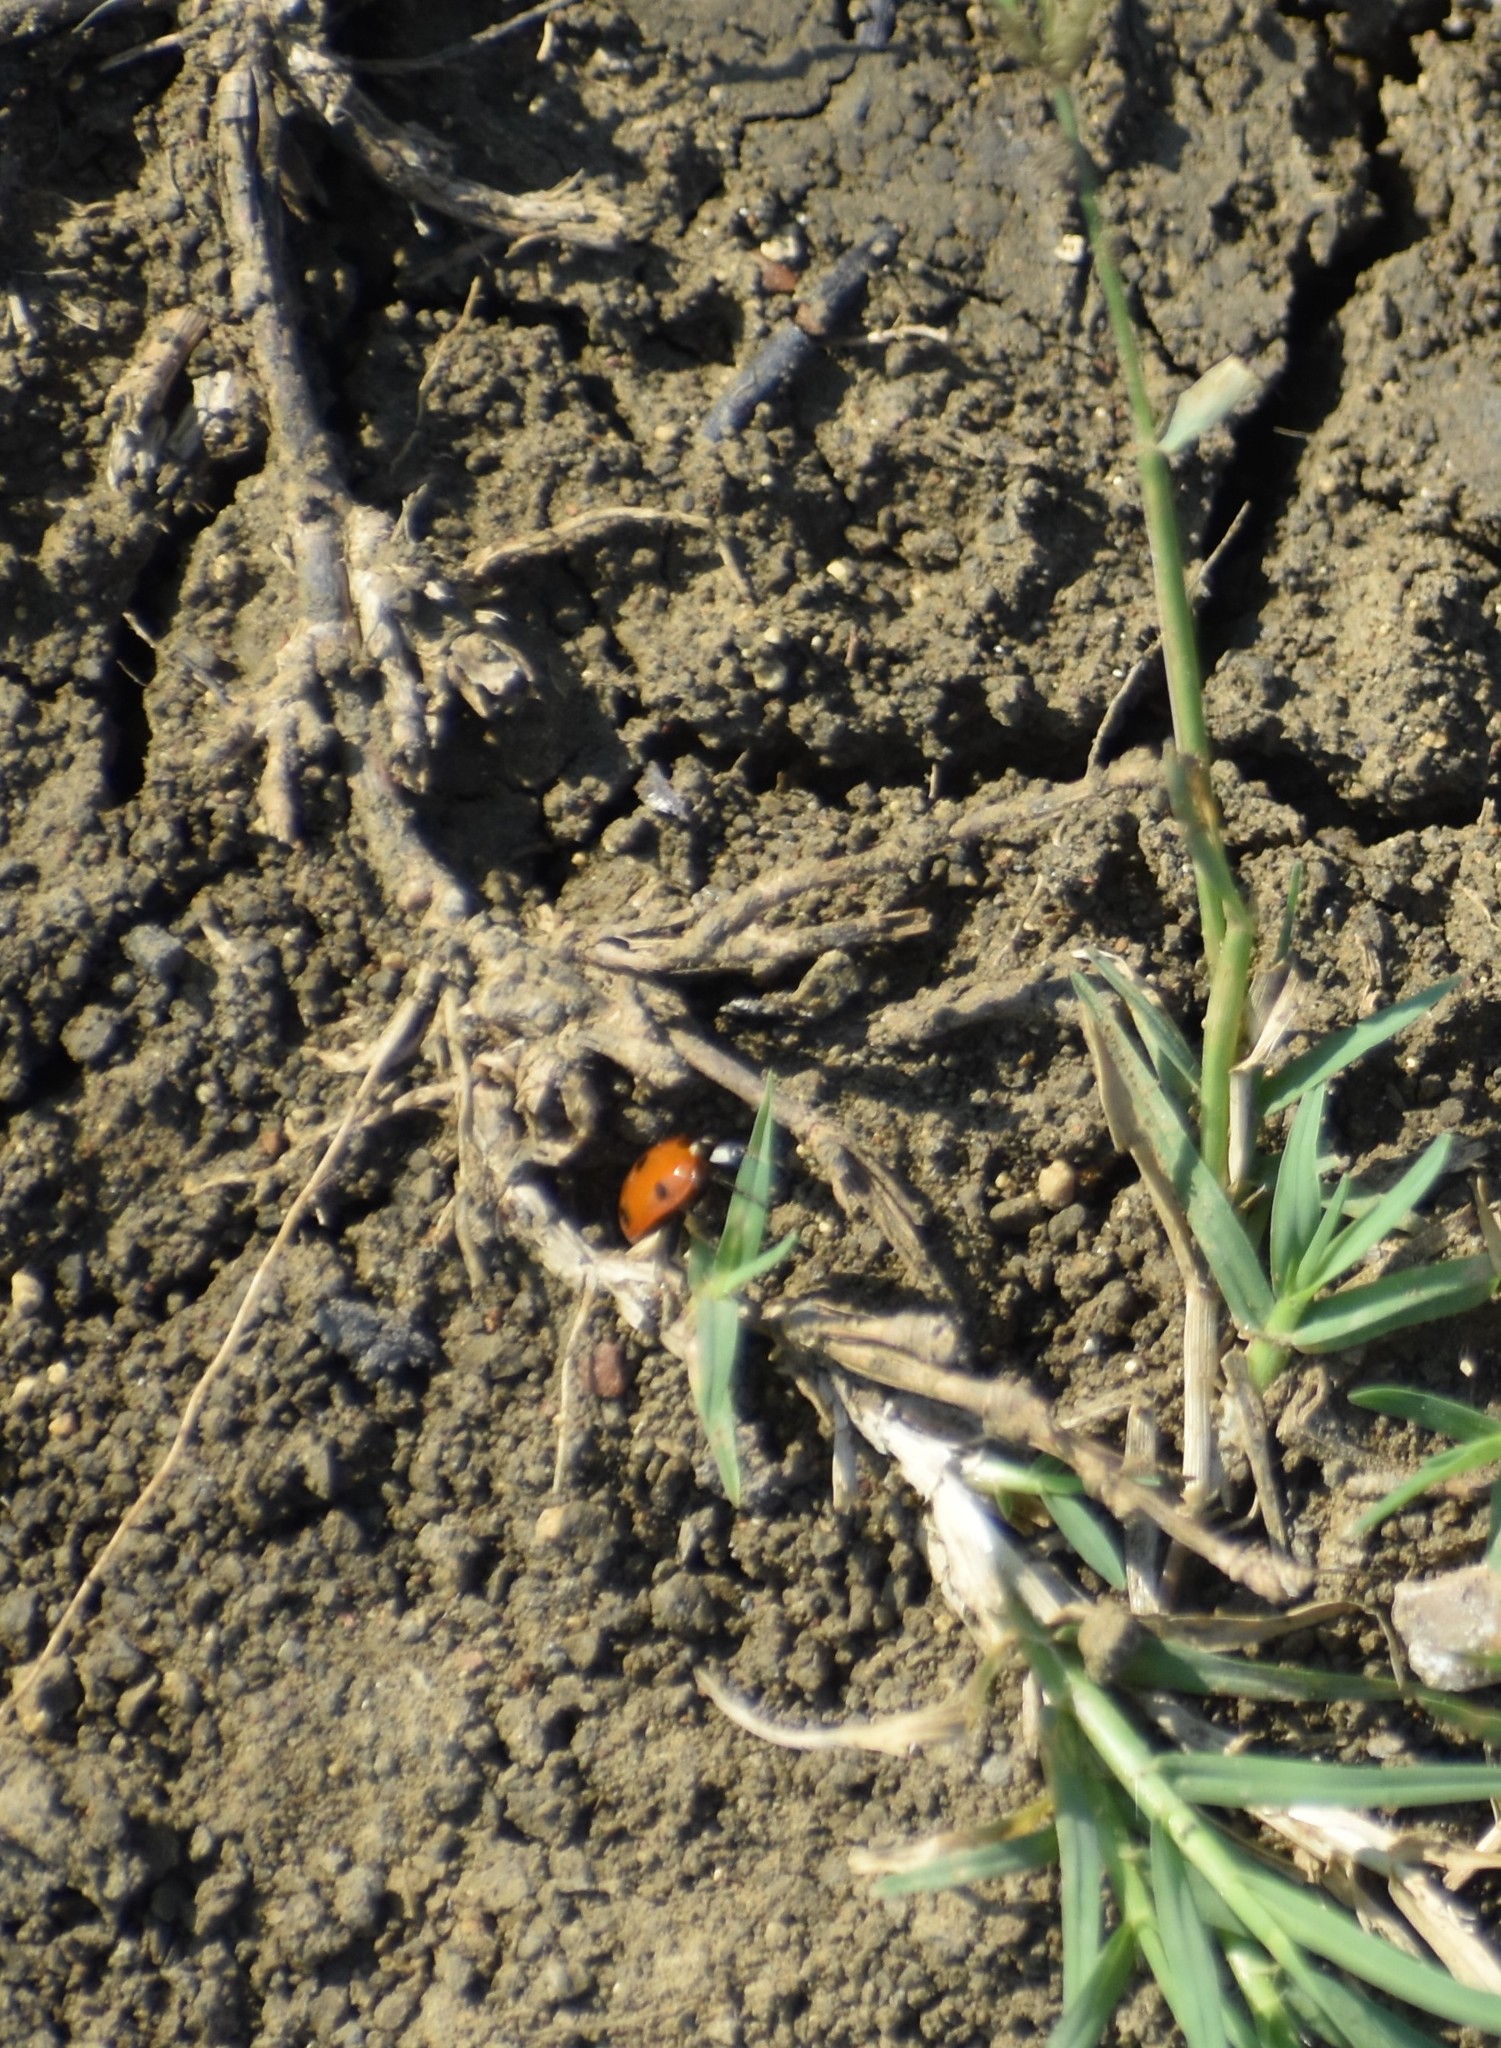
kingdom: Animalia
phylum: Arthropoda
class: Insecta
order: Coleoptera
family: Coccinellidae
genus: Coccinella
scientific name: Coccinella septempunctata
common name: Sevenspotted lady beetle
